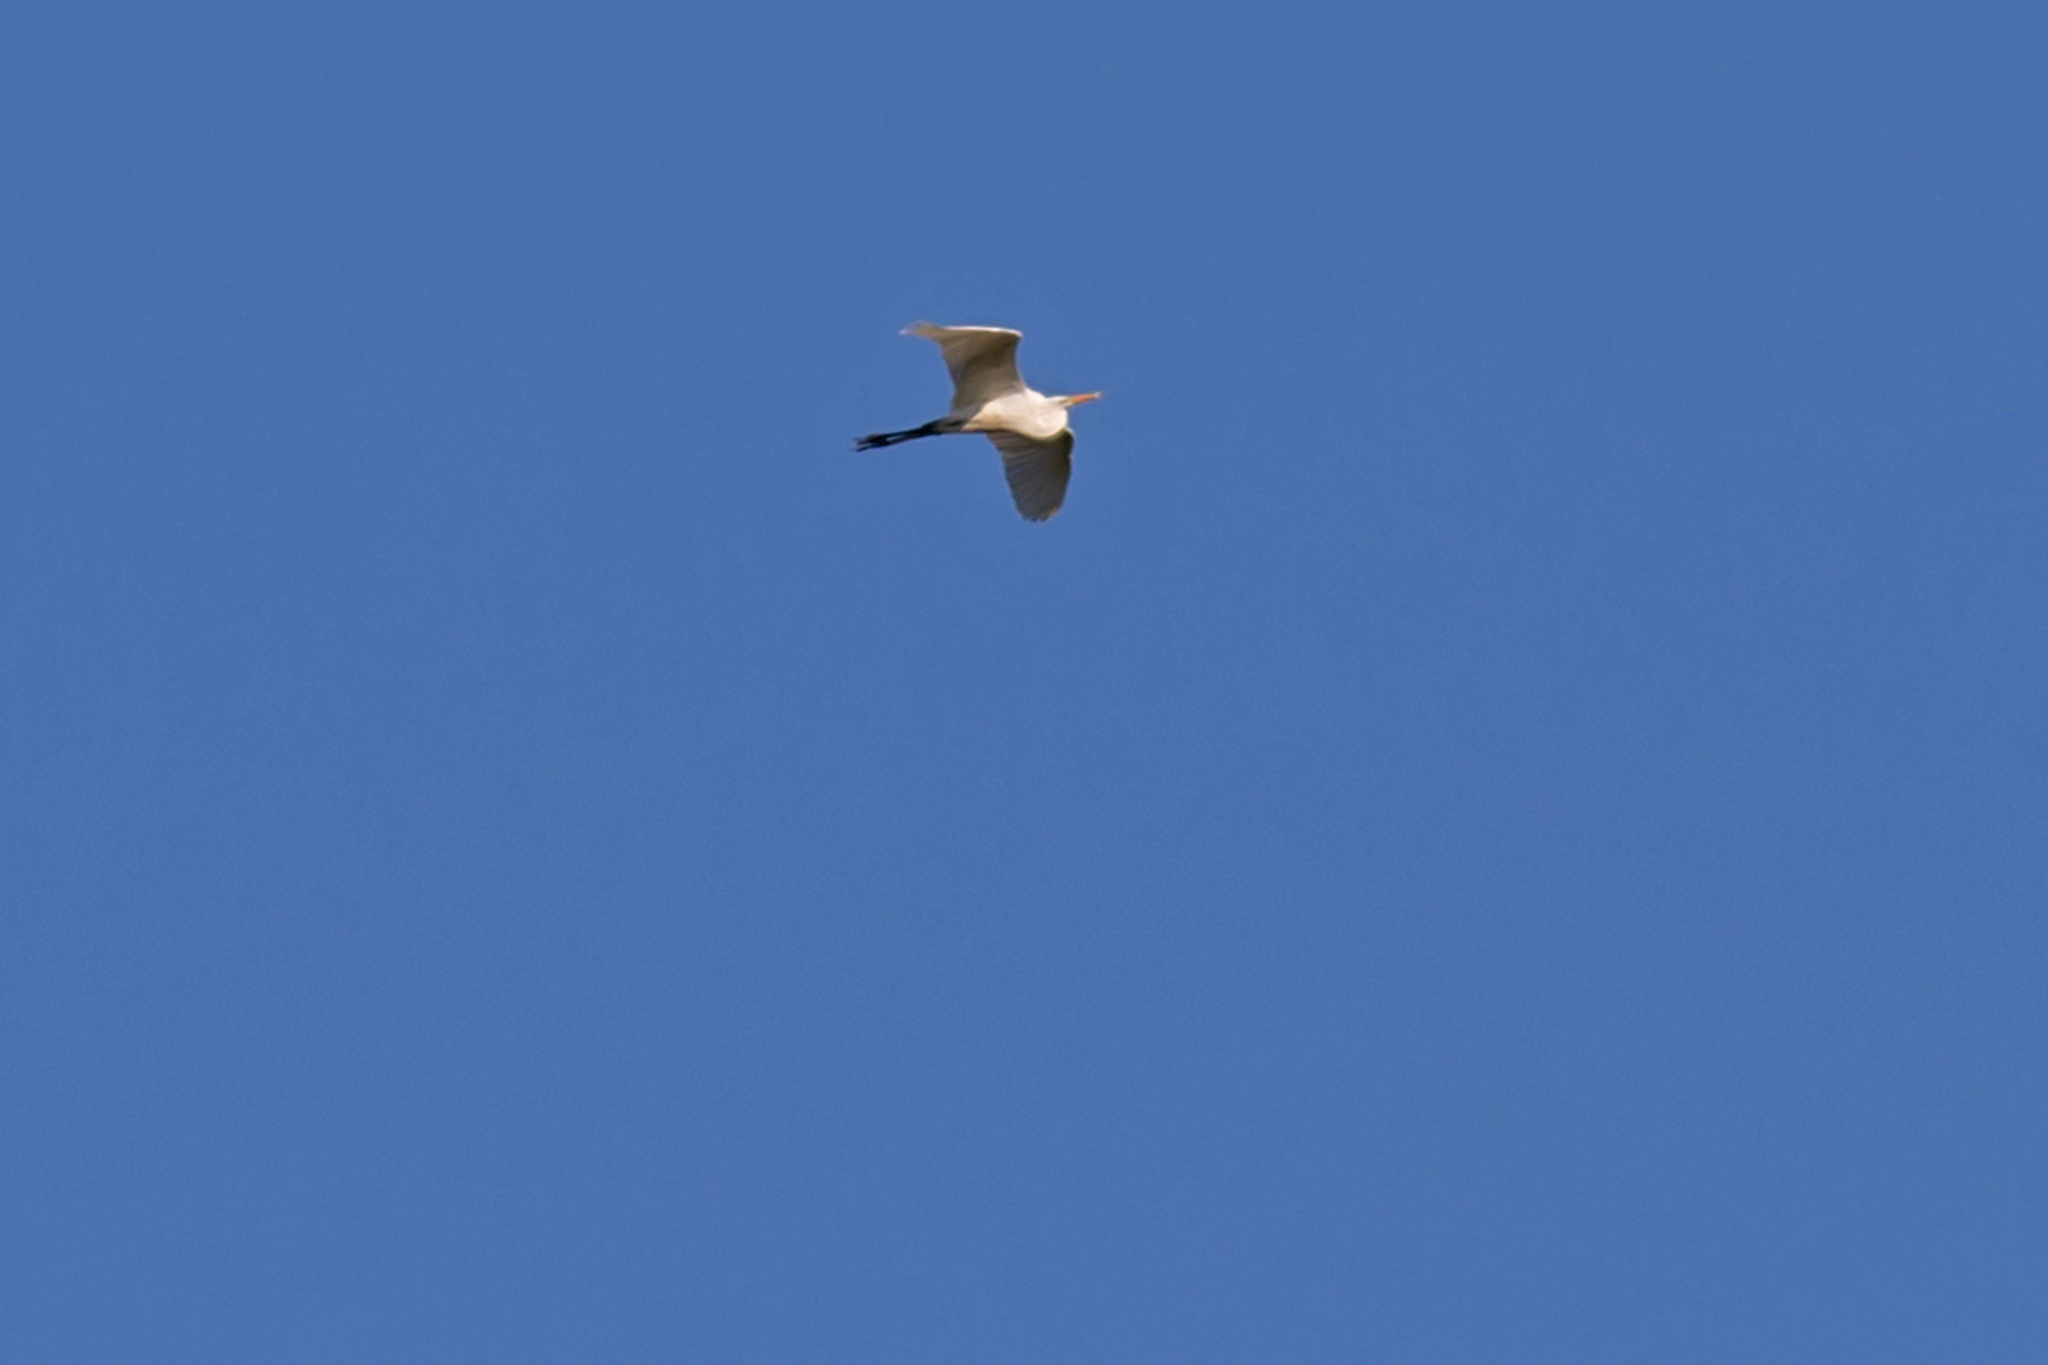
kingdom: Animalia
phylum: Chordata
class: Aves
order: Pelecaniformes
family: Ardeidae
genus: Ardea
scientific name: Ardea alba
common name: Great egret
